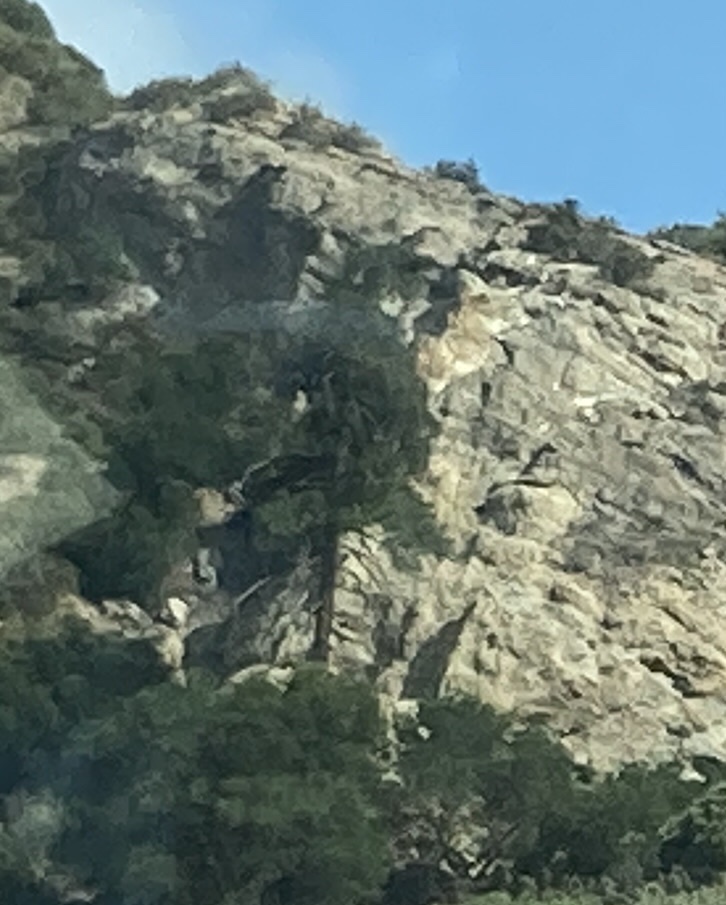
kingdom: Plantae
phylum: Tracheophyta
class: Pinopsida
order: Pinales
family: Pinaceae
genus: Pseudotsuga
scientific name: Pseudotsuga macrocarpa
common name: Big-cone douglas-fir
